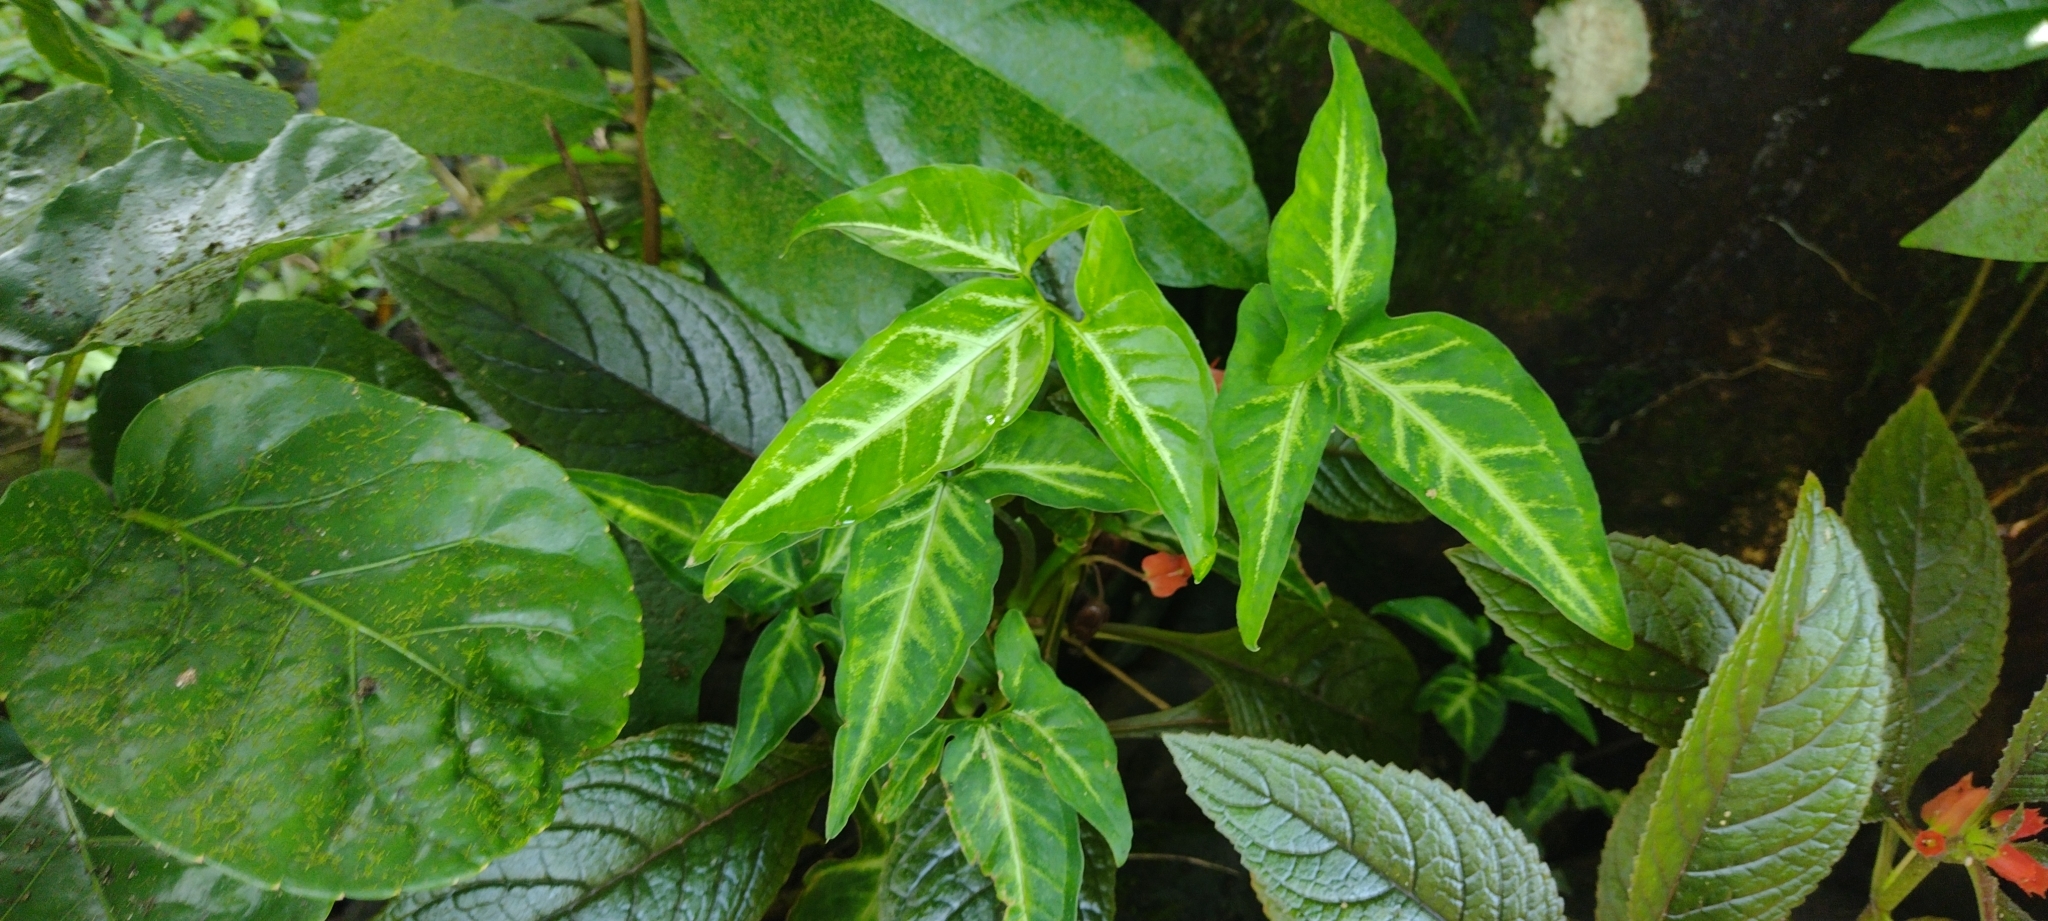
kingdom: Plantae
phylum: Tracheophyta
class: Liliopsida
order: Alismatales
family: Araceae
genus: Syngonium
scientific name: Syngonium podophyllum
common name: American evergreen
